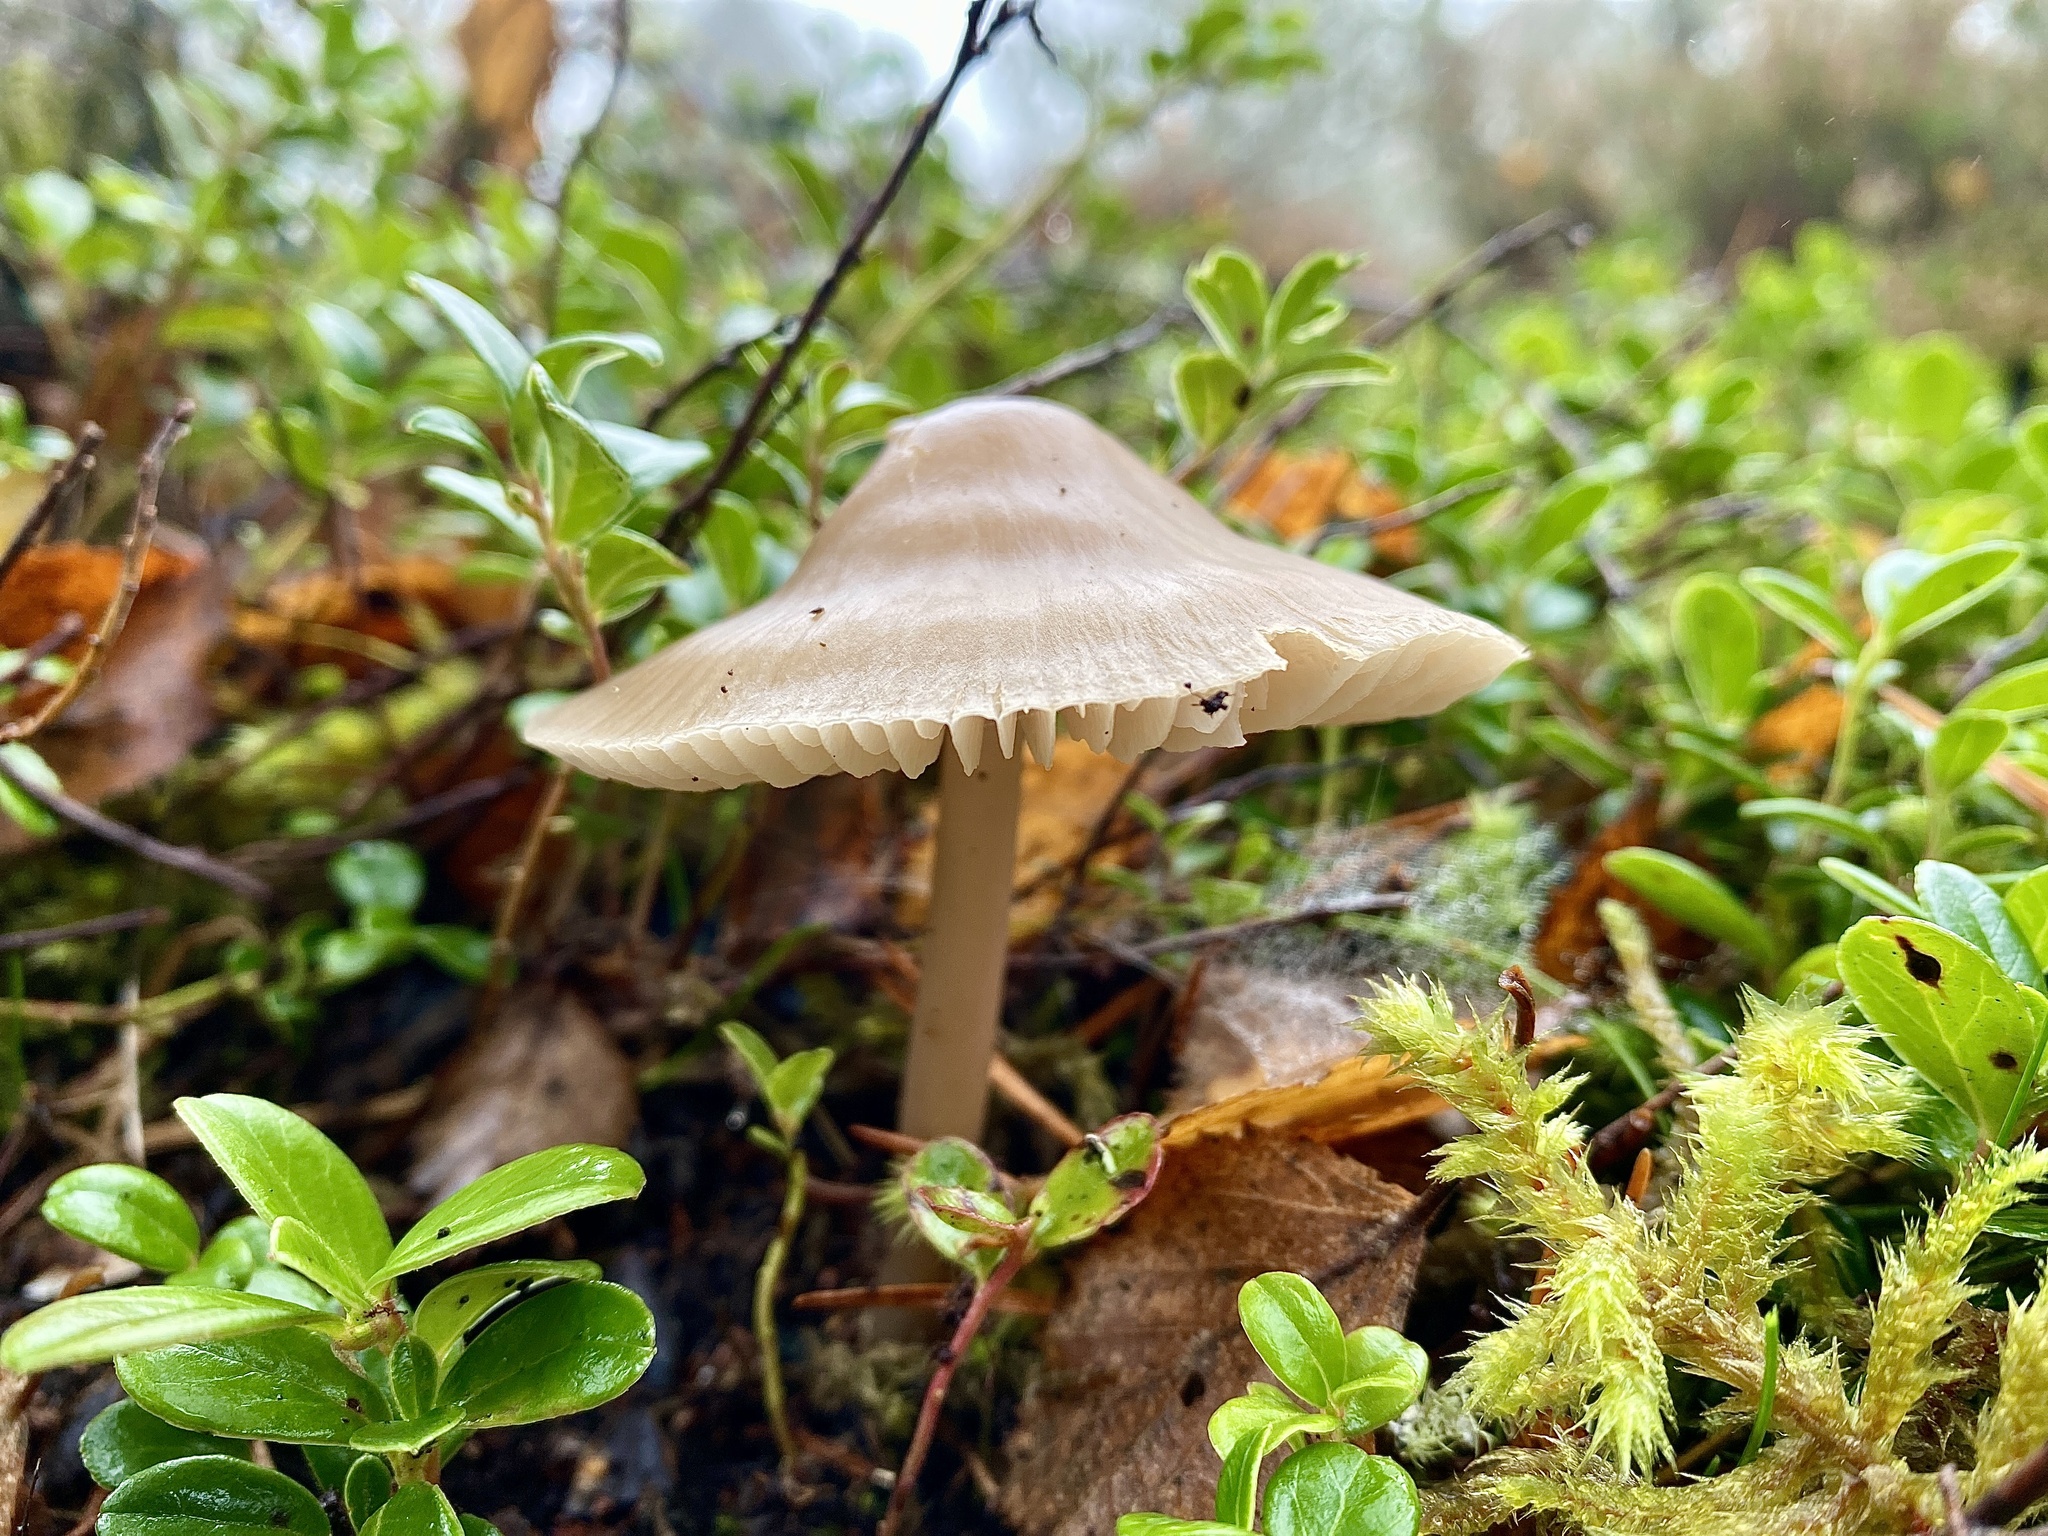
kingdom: Fungi
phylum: Basidiomycota
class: Agaricomycetes
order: Agaricales
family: Mycenaceae
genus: Mycena
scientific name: Mycena galericulata
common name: Bonnet mycena
